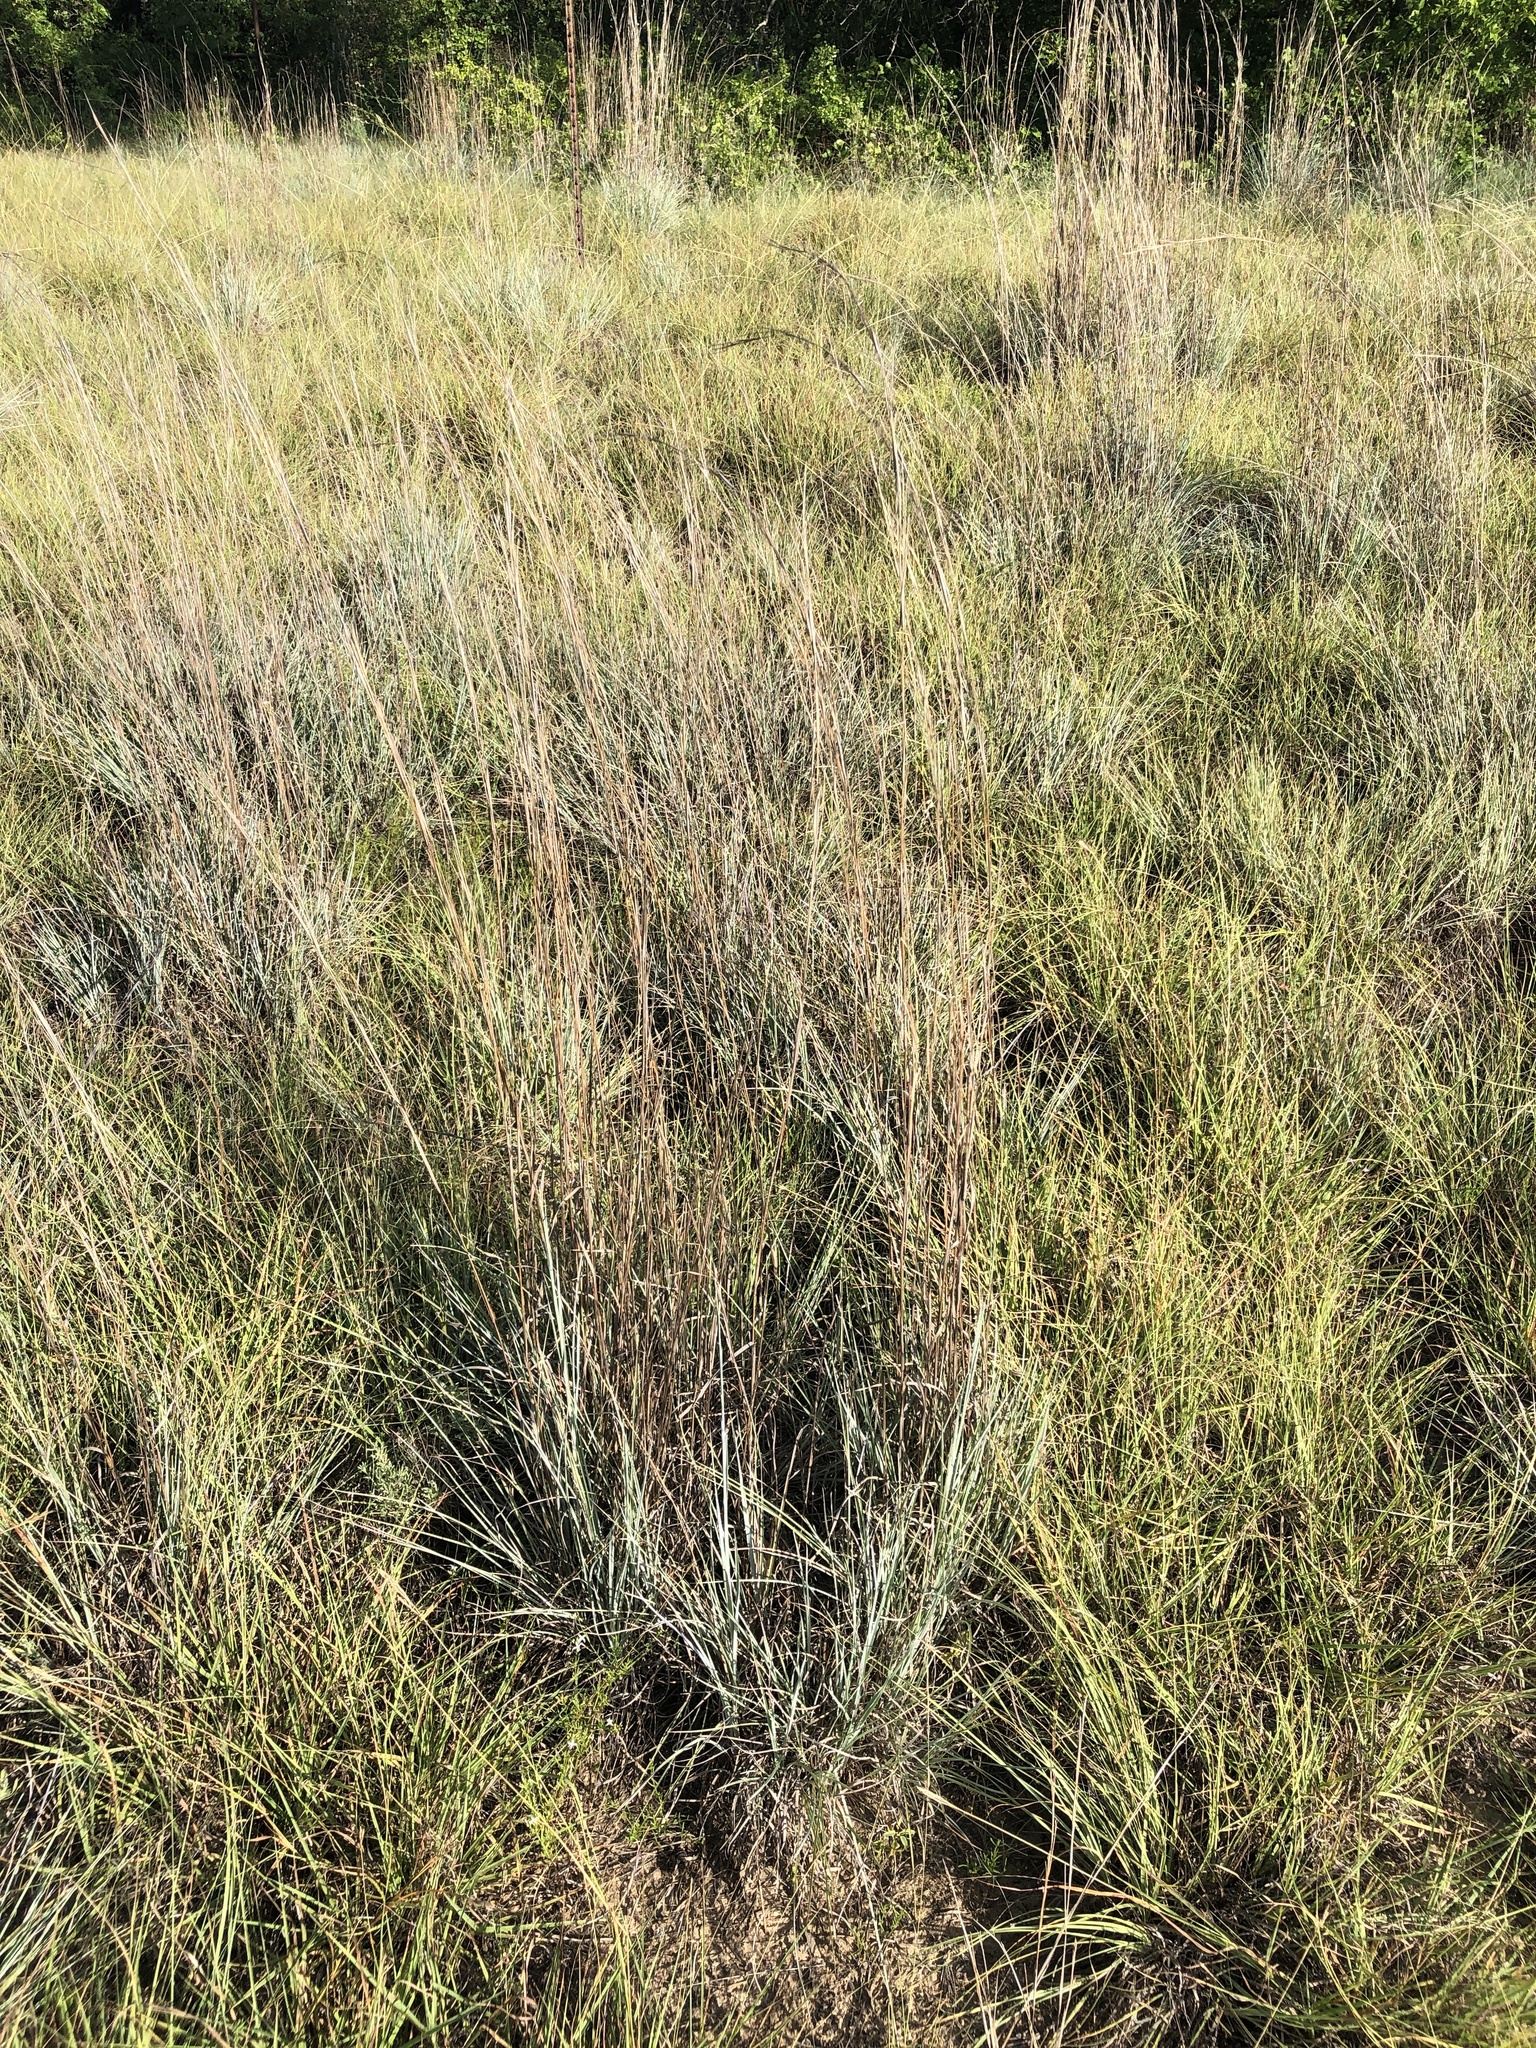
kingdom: Plantae
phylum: Tracheophyta
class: Liliopsida
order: Poales
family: Poaceae
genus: Schizachyrium
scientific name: Schizachyrium scoparium
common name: Little bluestem
